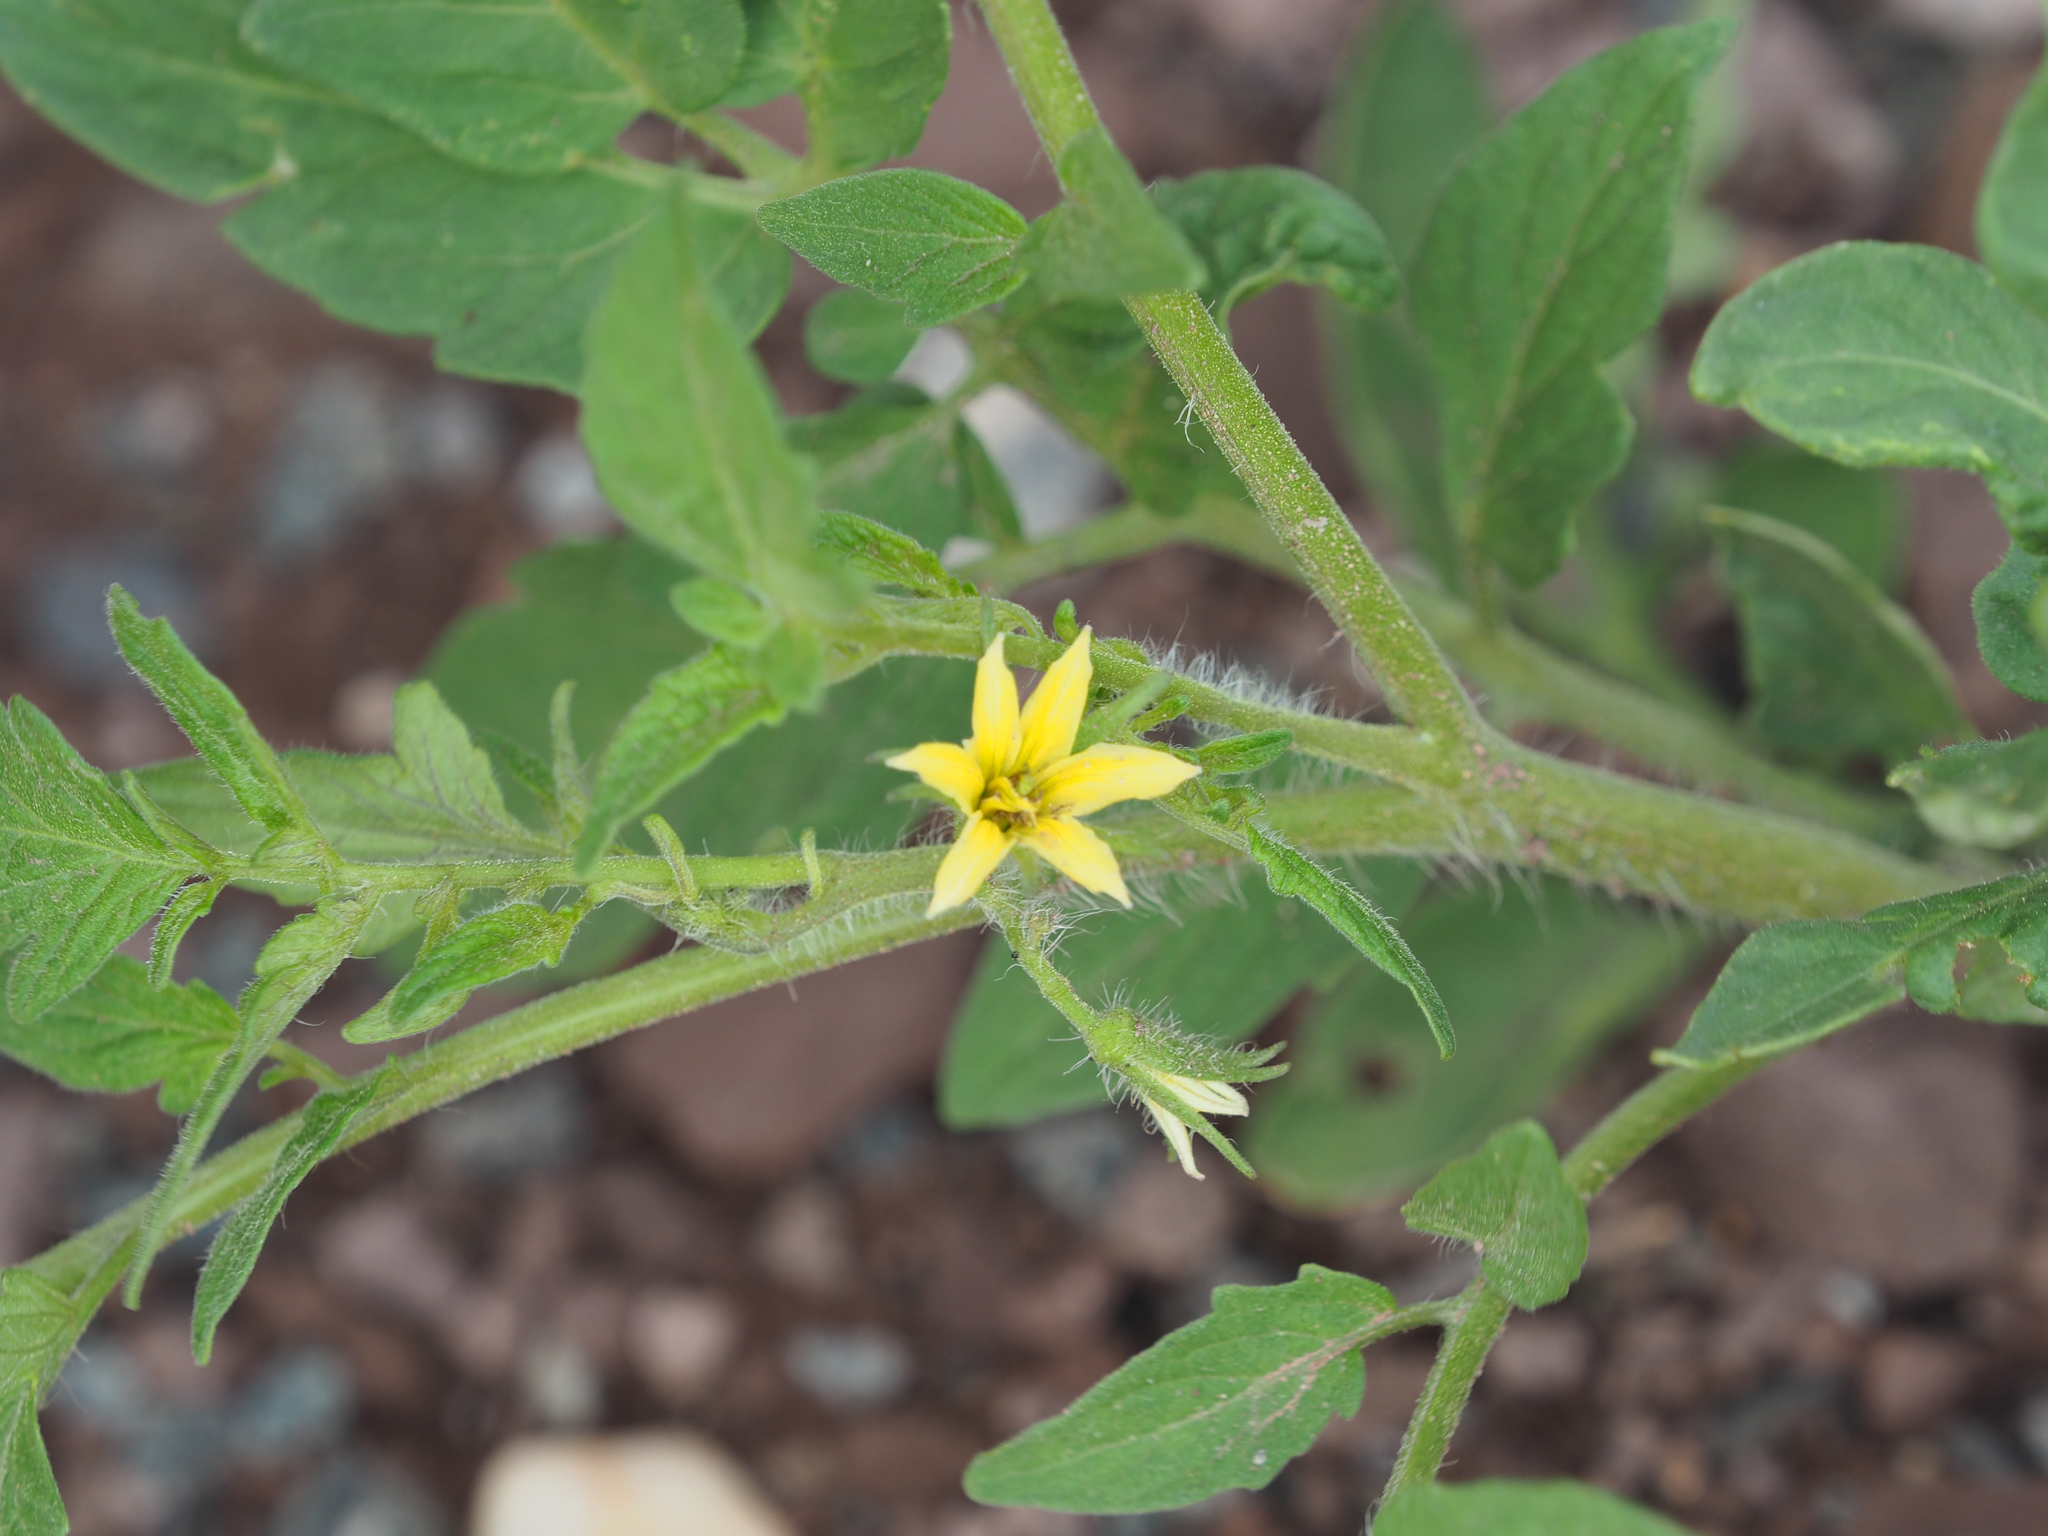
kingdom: Plantae
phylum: Tracheophyta
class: Magnoliopsida
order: Solanales
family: Solanaceae
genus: Solanum
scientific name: Solanum lycopersicum
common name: Garden tomato
